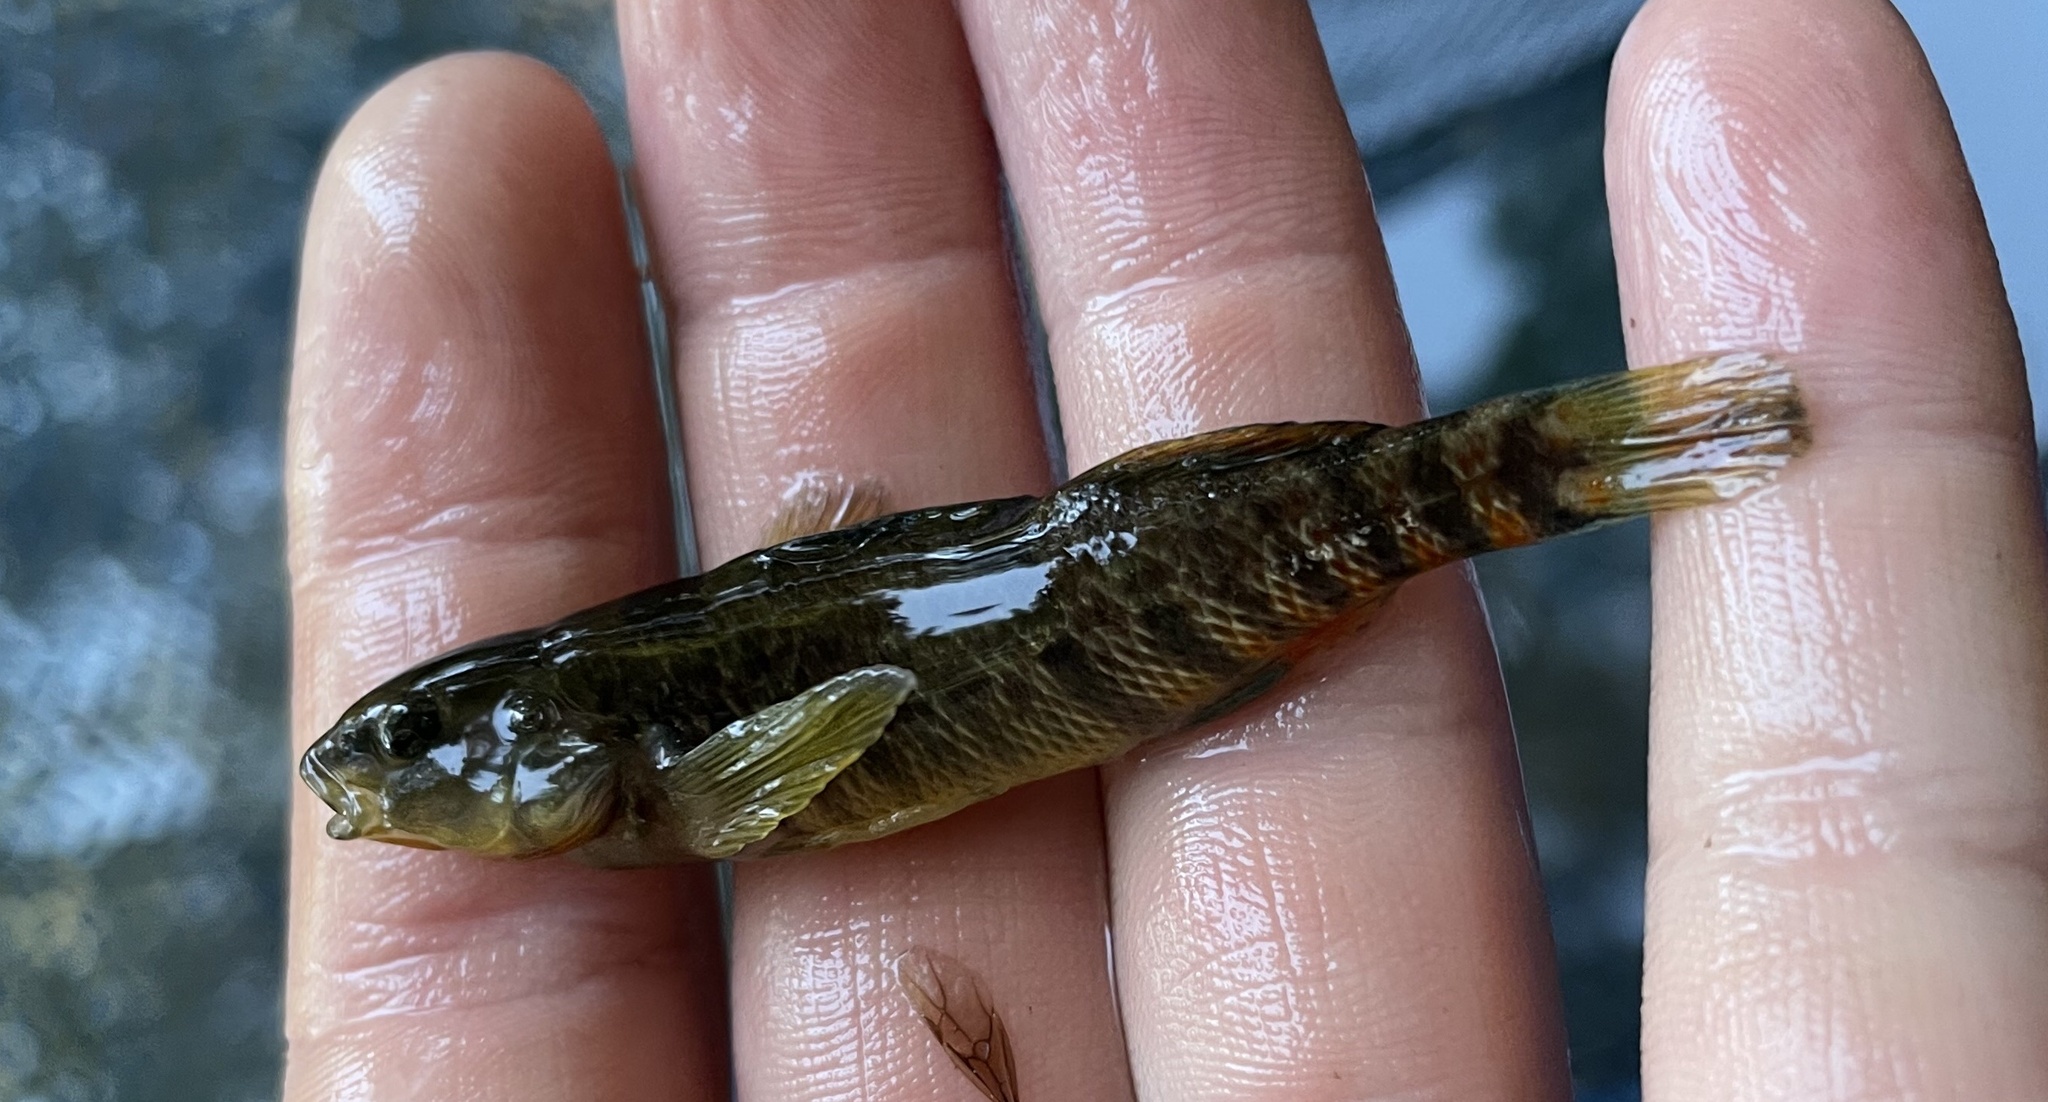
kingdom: Animalia
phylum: Chordata
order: Perciformes
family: Percidae
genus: Etheostoma
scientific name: Etheostoma caeruleum
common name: Rainbow darter
